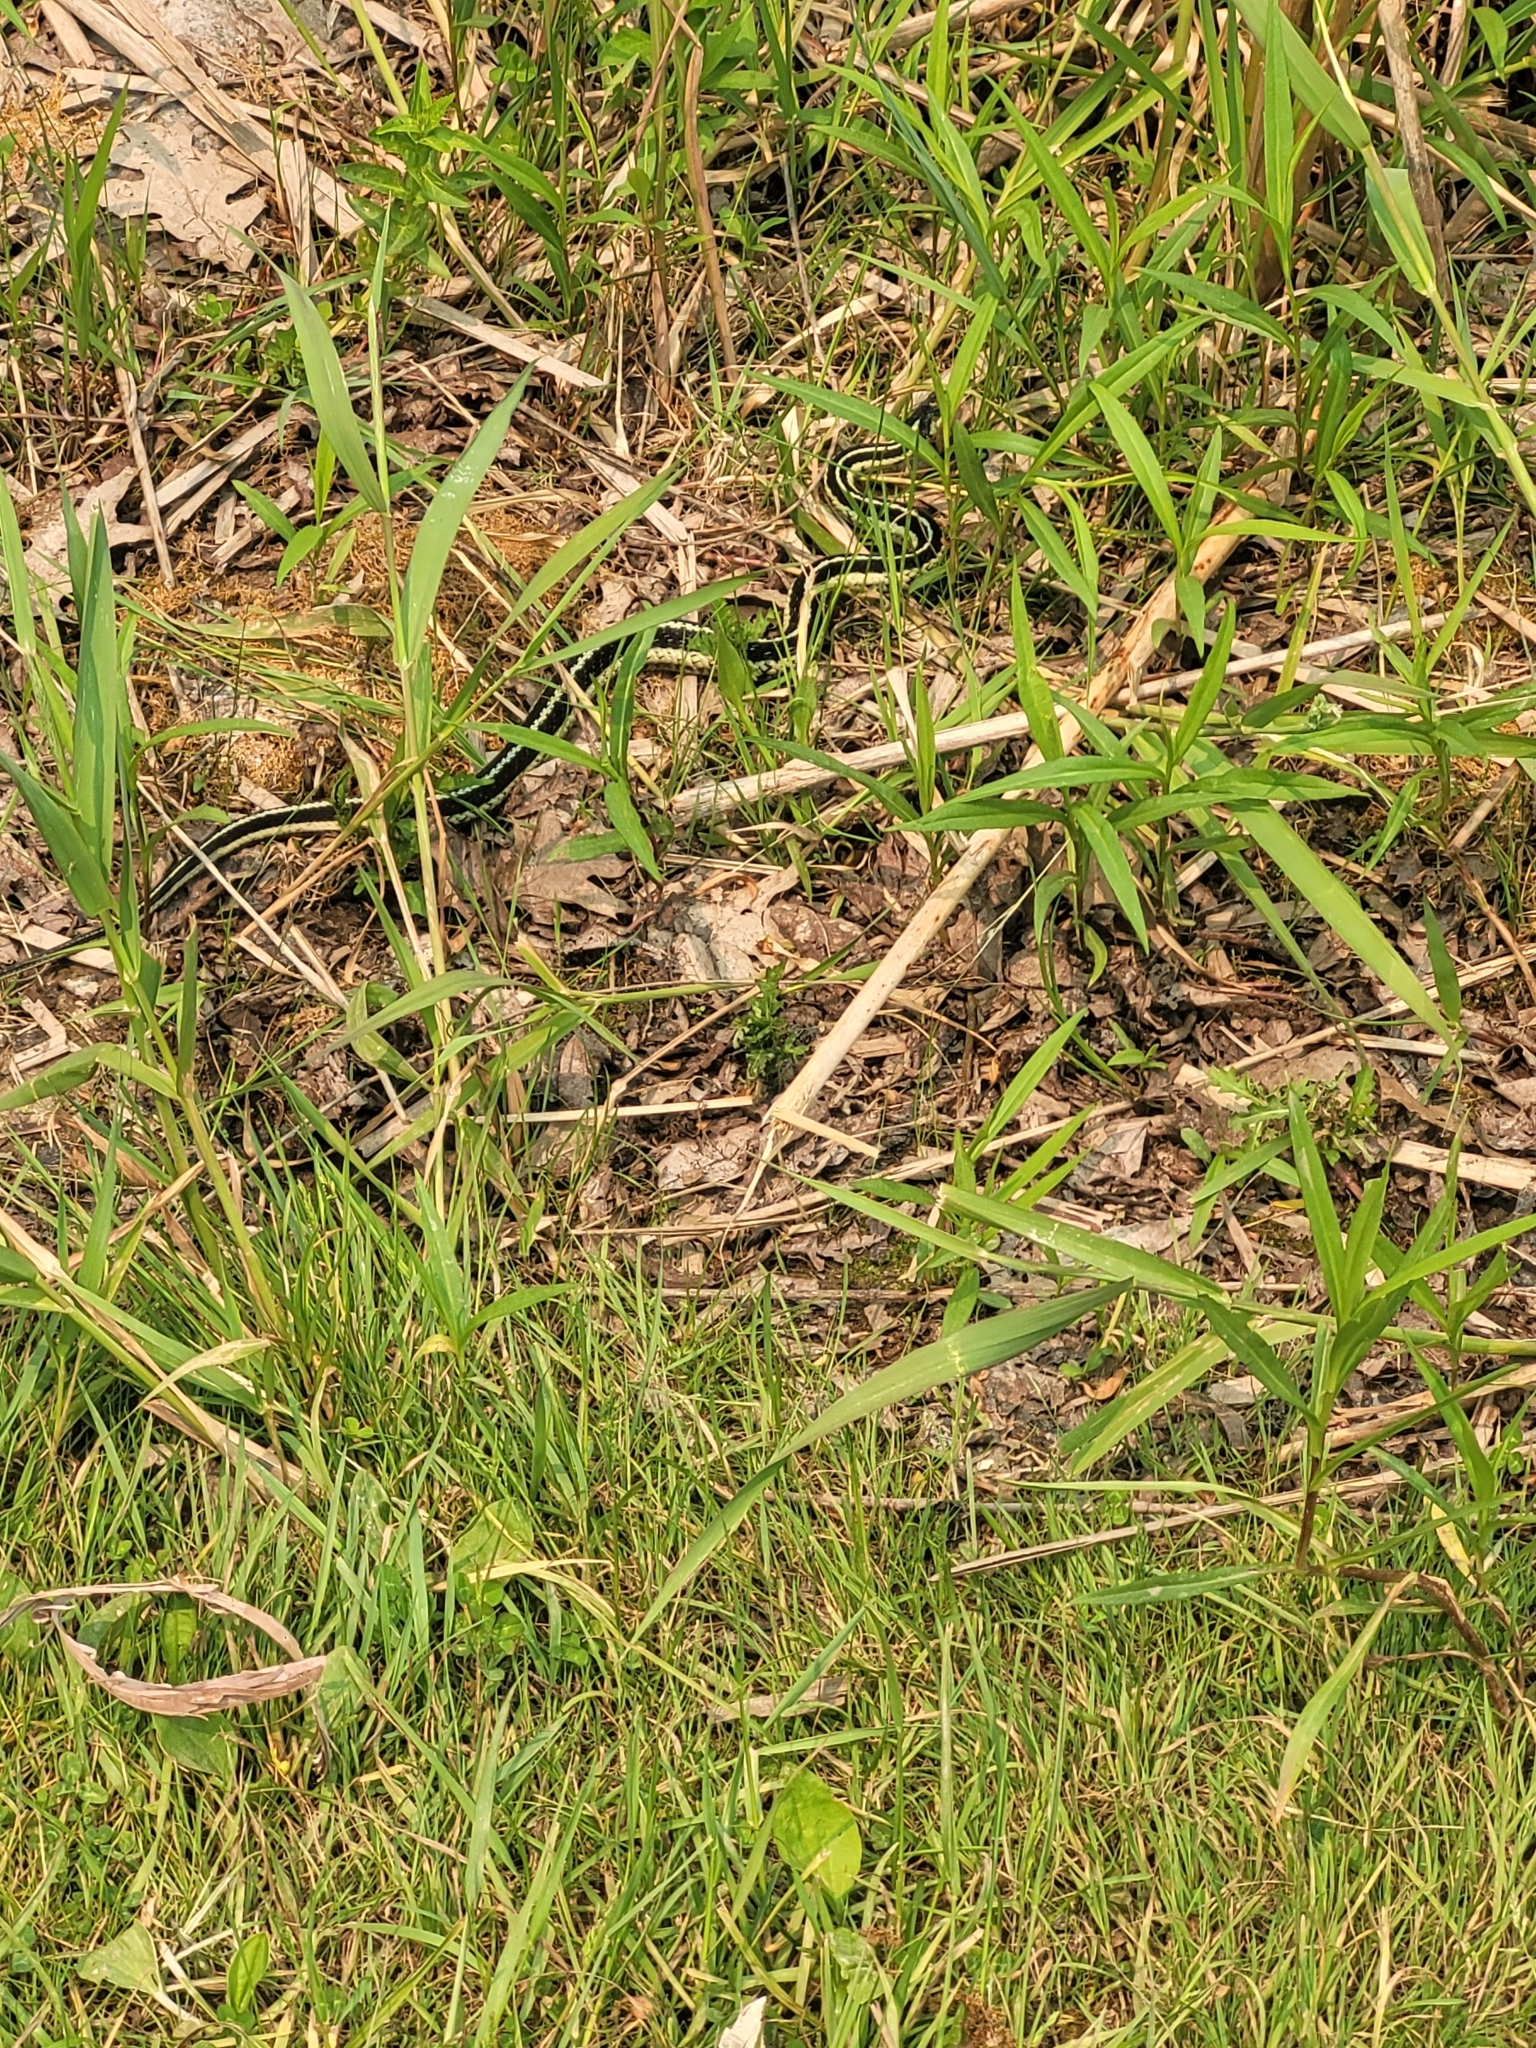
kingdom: Animalia
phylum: Chordata
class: Squamata
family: Colubridae
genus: Thamnophis
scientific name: Thamnophis sirtalis
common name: Common garter snake
